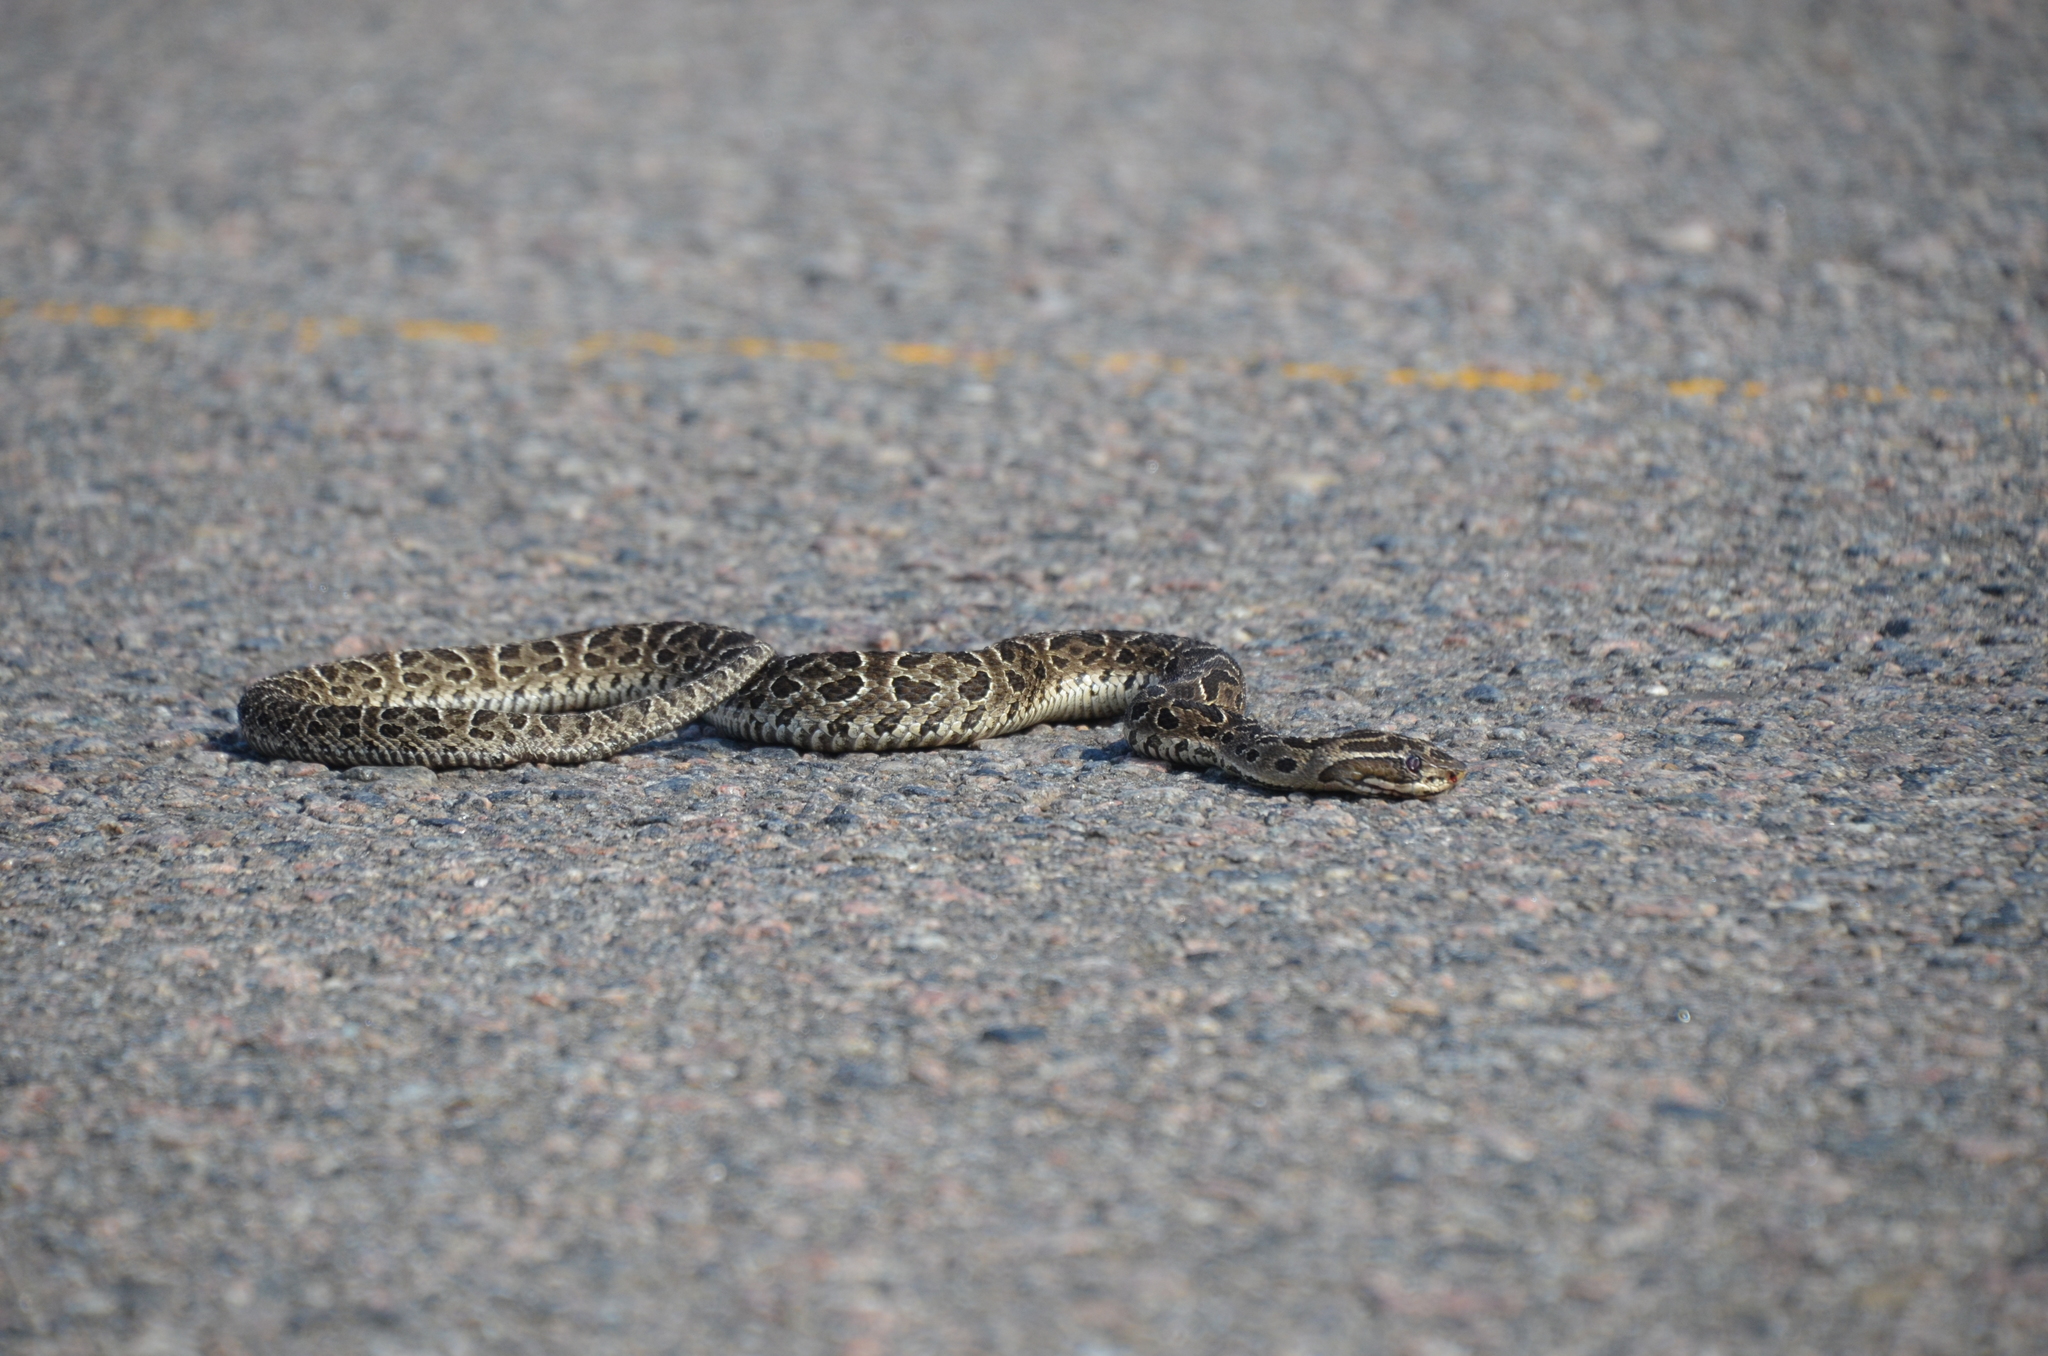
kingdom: Animalia
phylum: Chordata
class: Squamata
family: Viperidae
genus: Bothrops
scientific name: Bothrops alternatus
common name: Urutu
